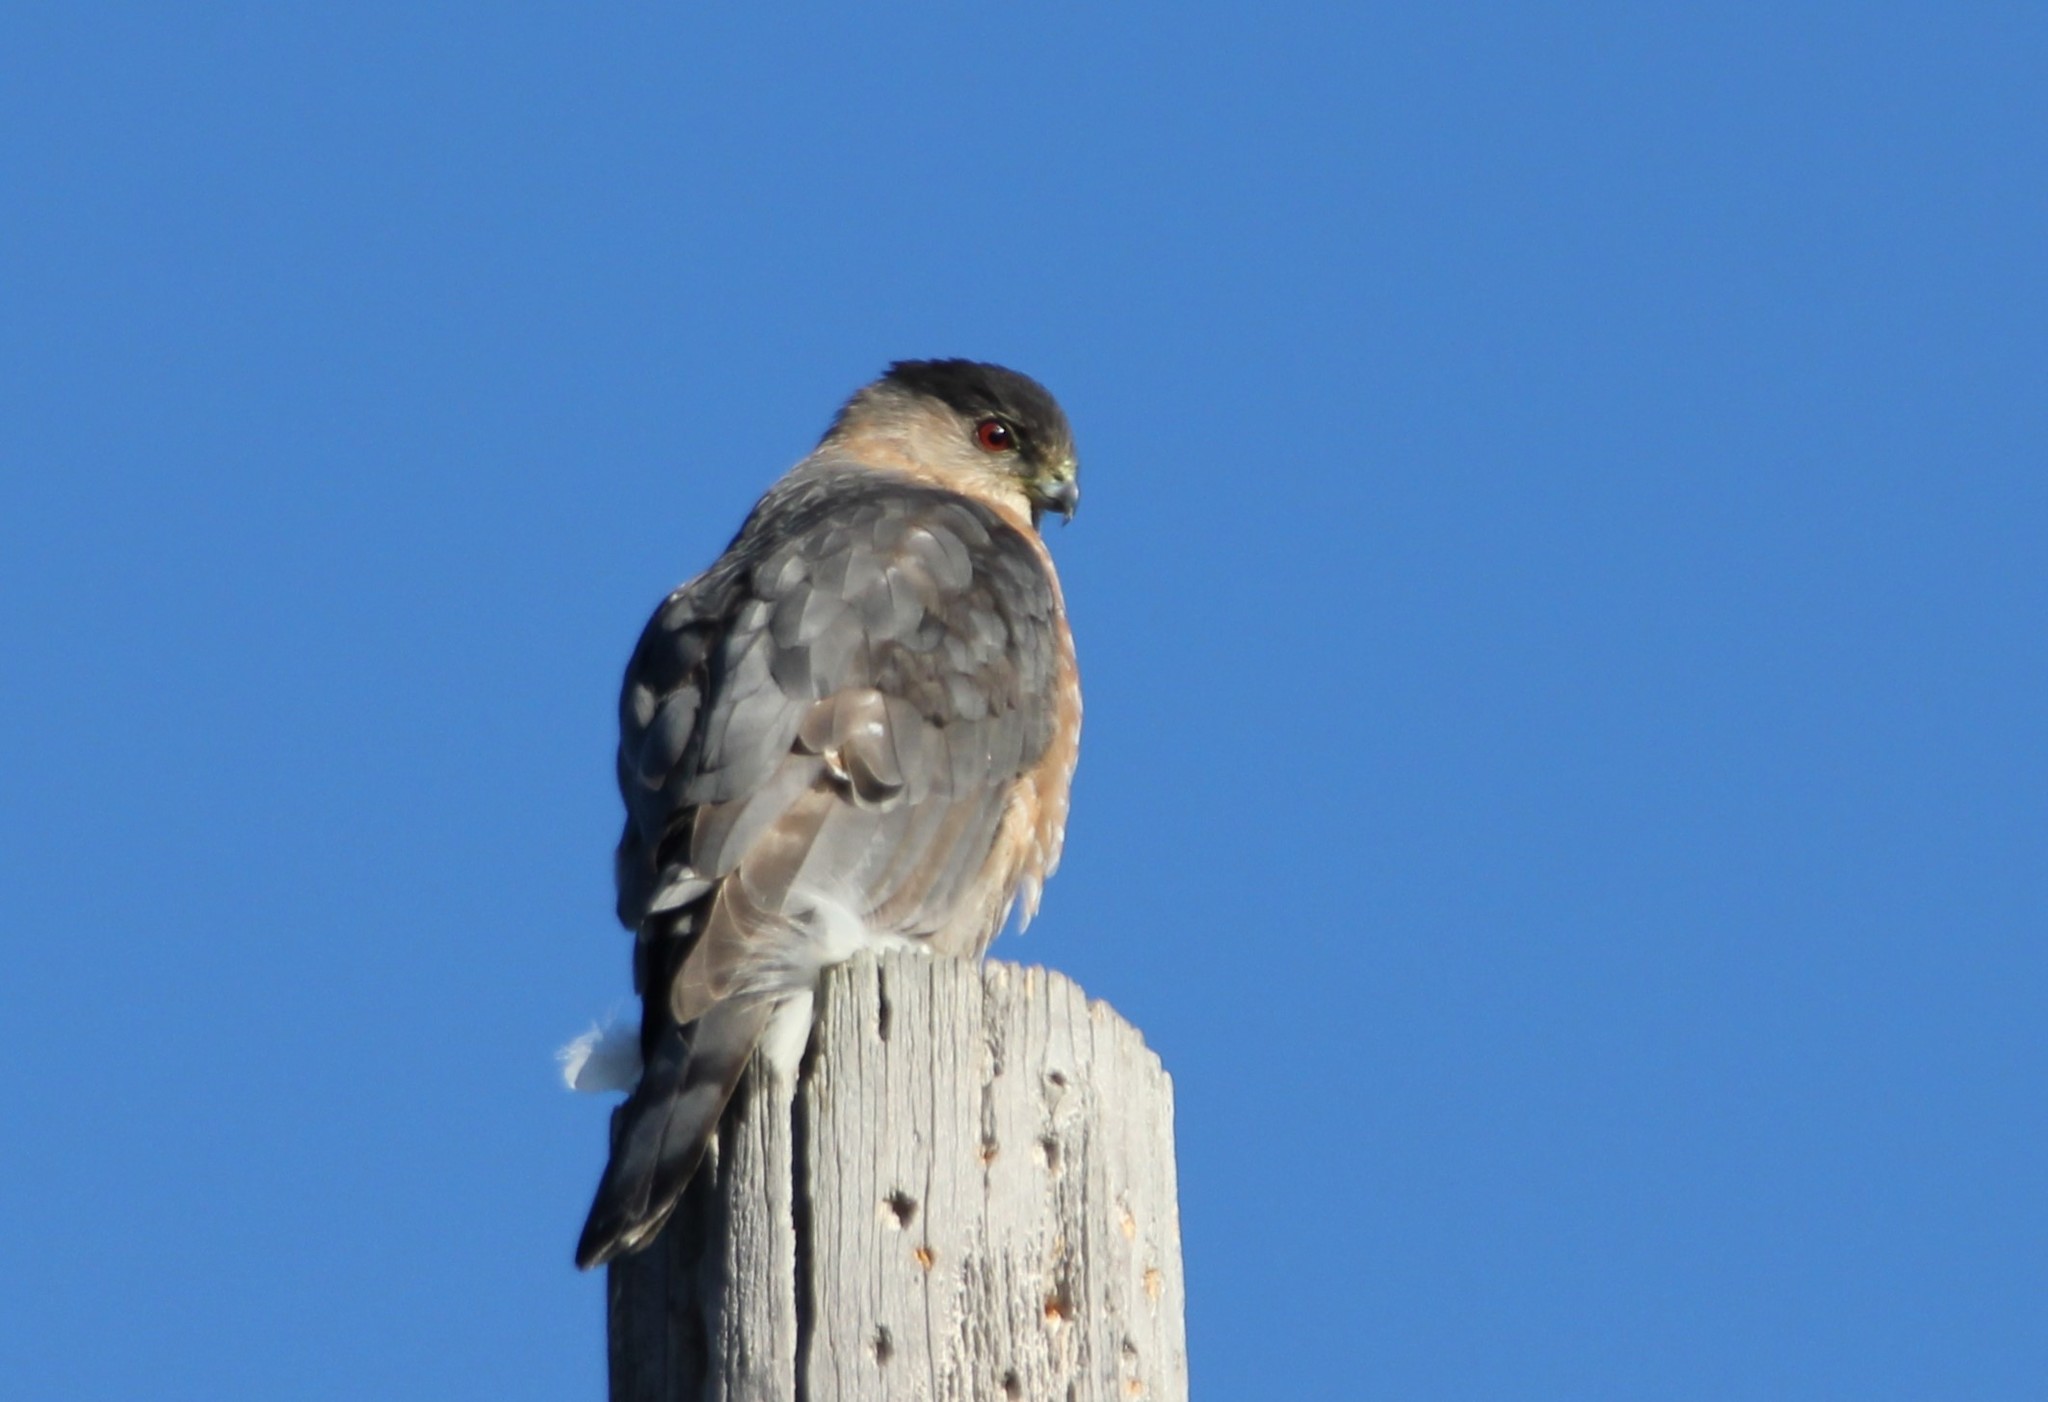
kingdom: Animalia
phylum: Chordata
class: Aves
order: Accipitriformes
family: Accipitridae
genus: Accipiter
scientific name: Accipiter cooperii
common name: Cooper's hawk
